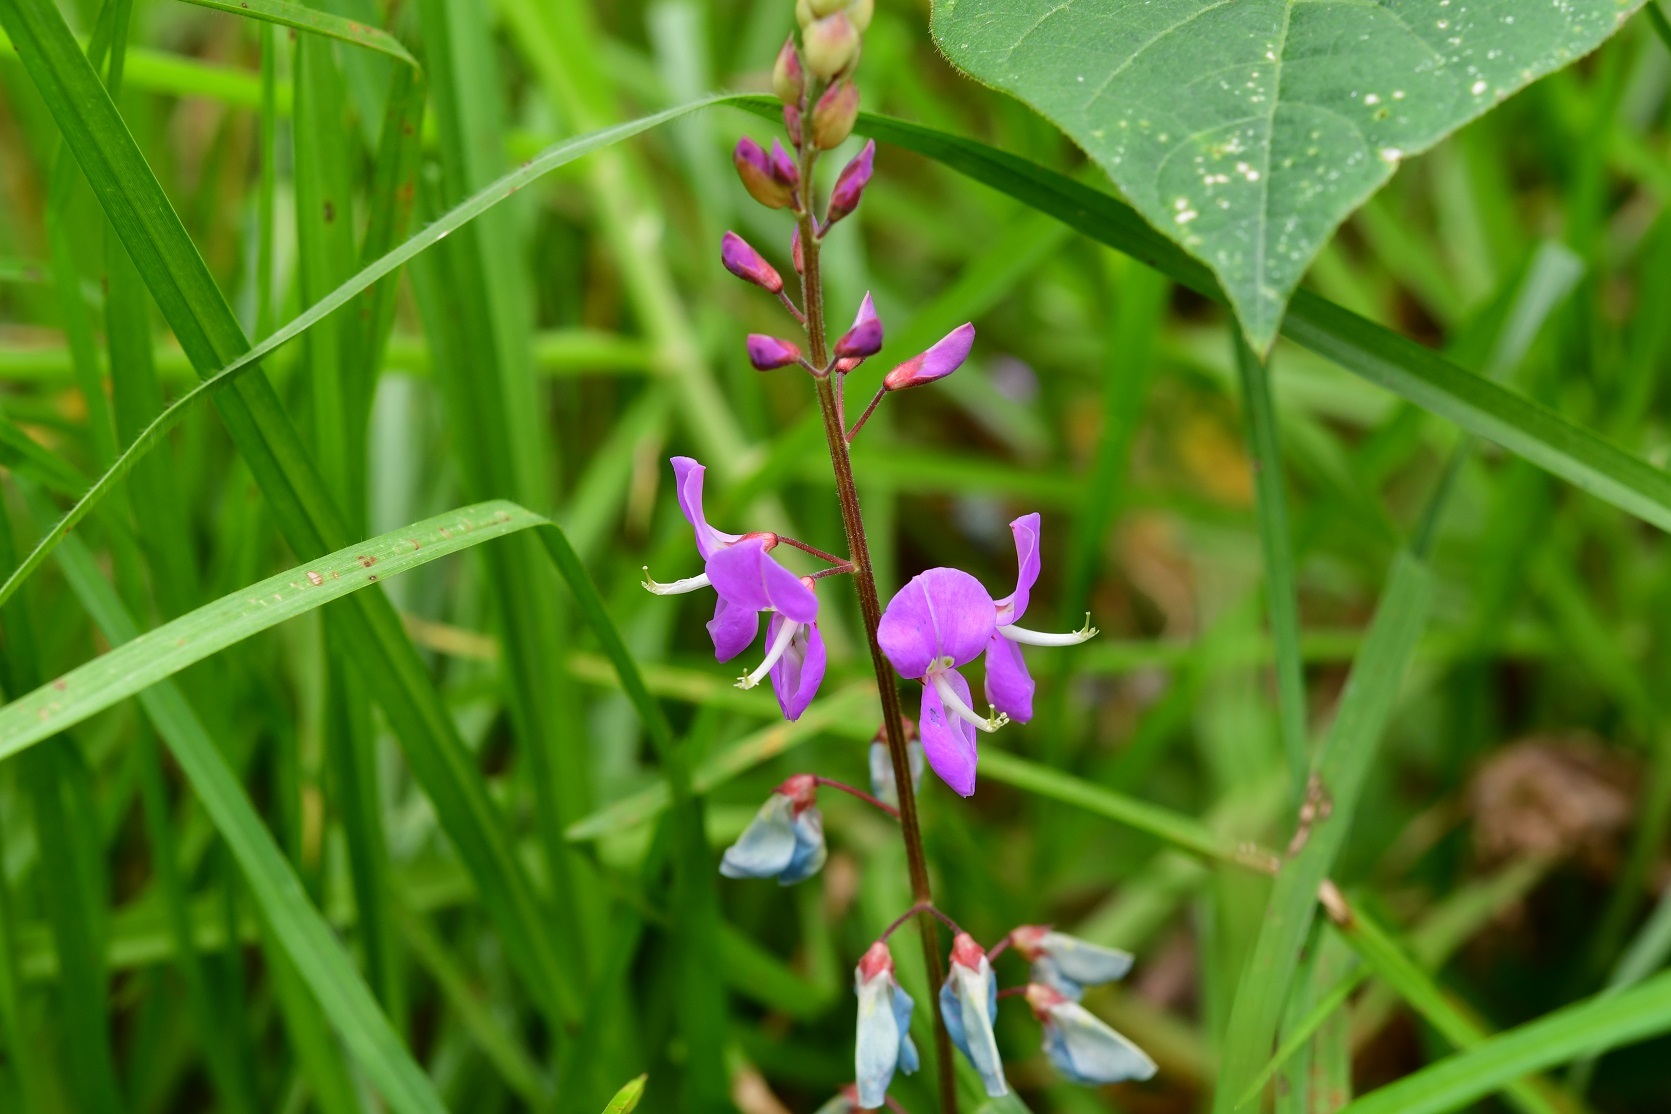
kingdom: Plantae
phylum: Tracheophyta
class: Magnoliopsida
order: Fabales
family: Fabaceae
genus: Desmodium
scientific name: Desmodium pringlei
